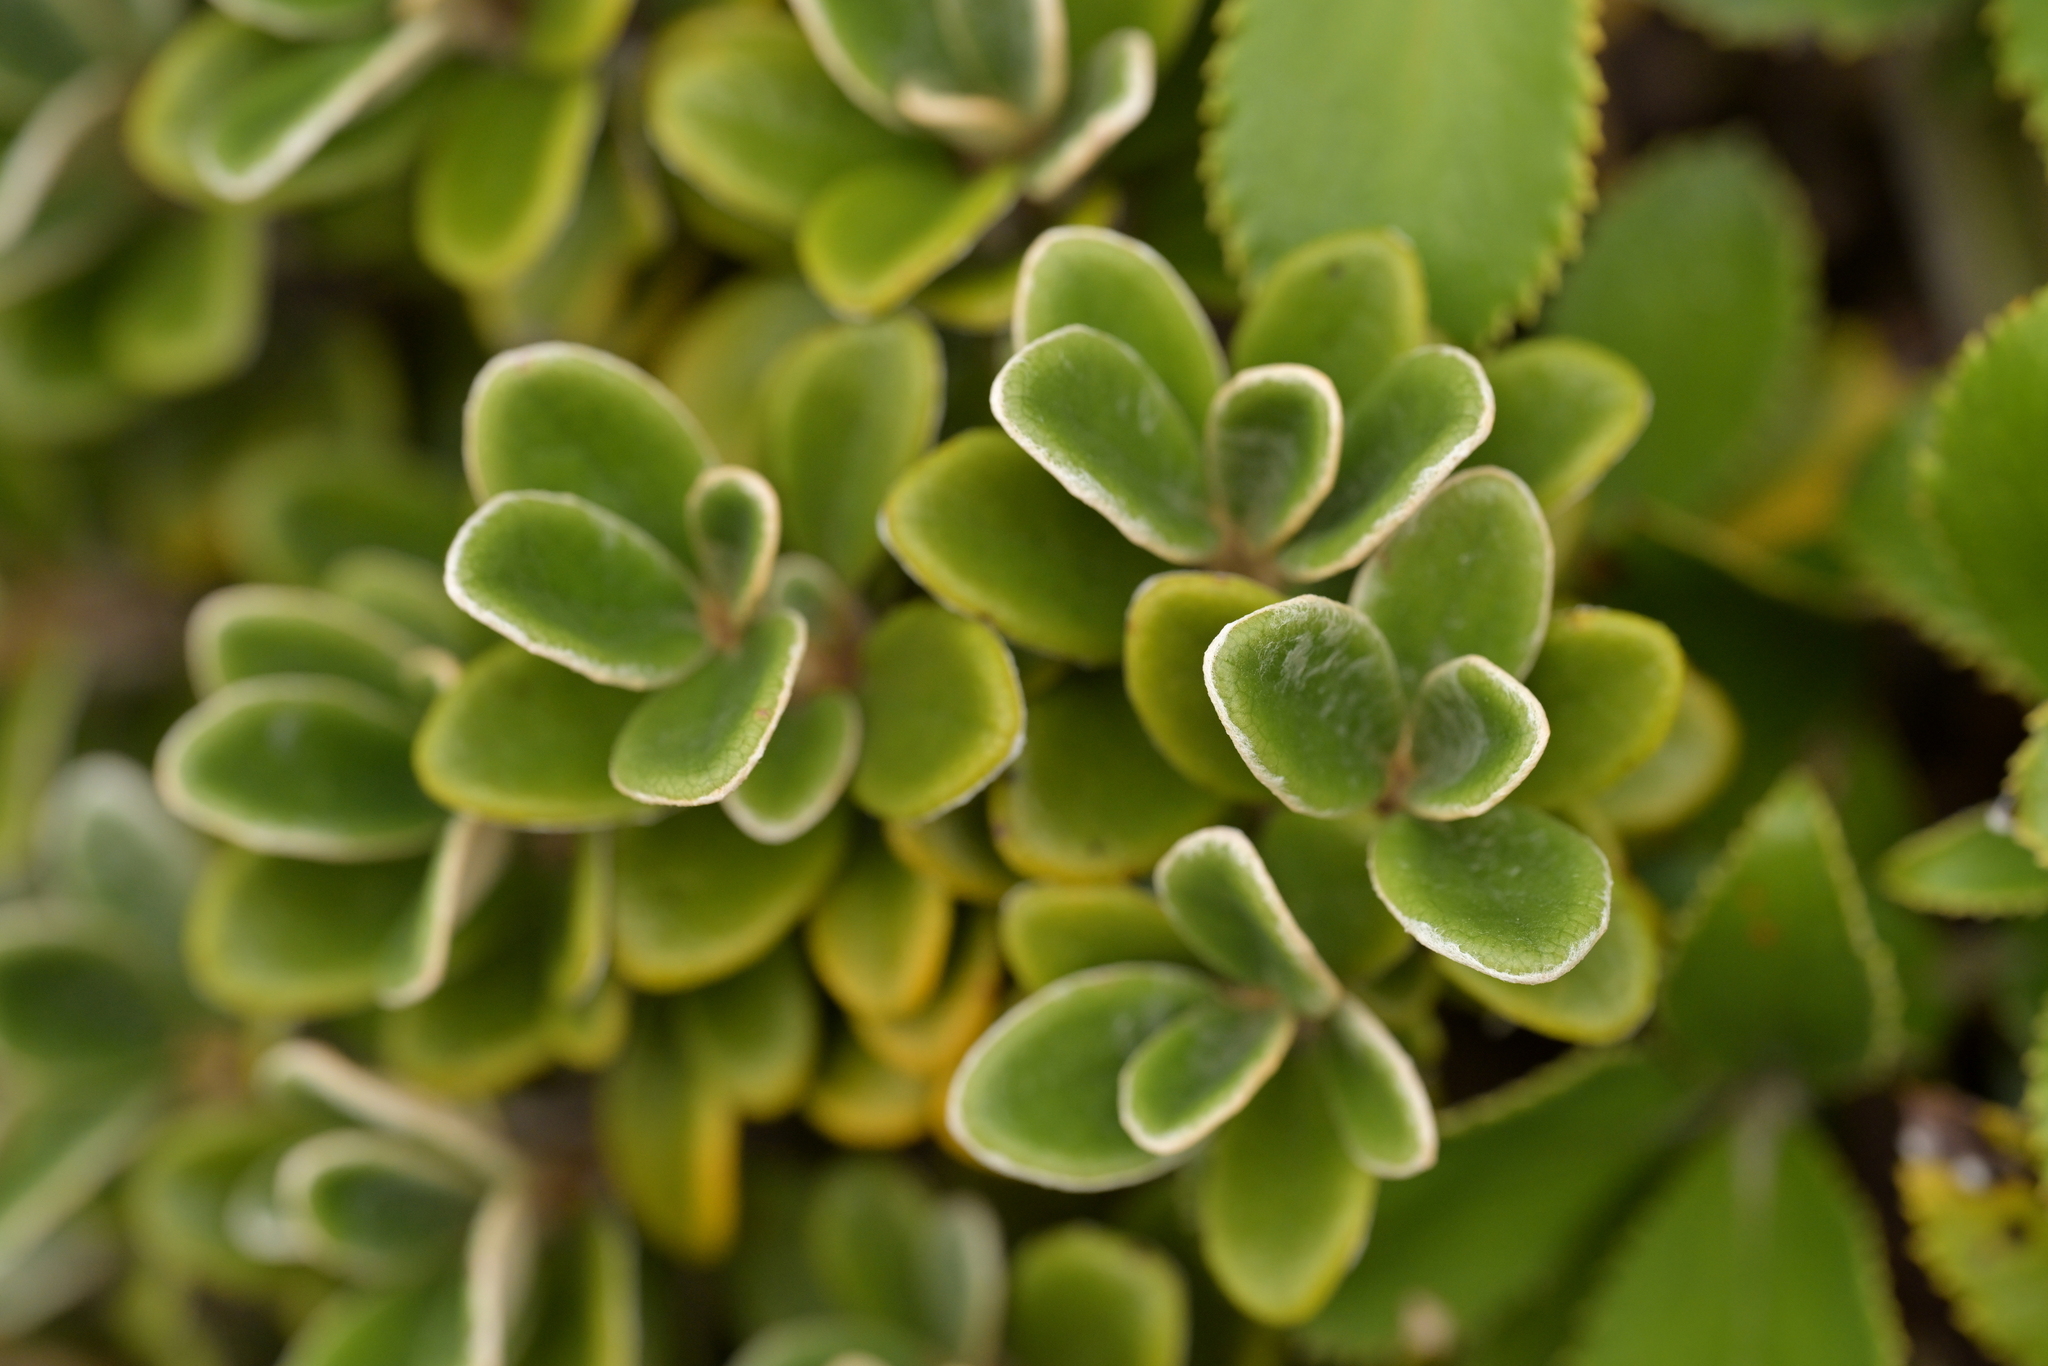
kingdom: Plantae
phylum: Tracheophyta
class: Magnoliopsida
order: Asterales
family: Asteraceae
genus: Brachyglottis
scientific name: Brachyglottis bidwillii
